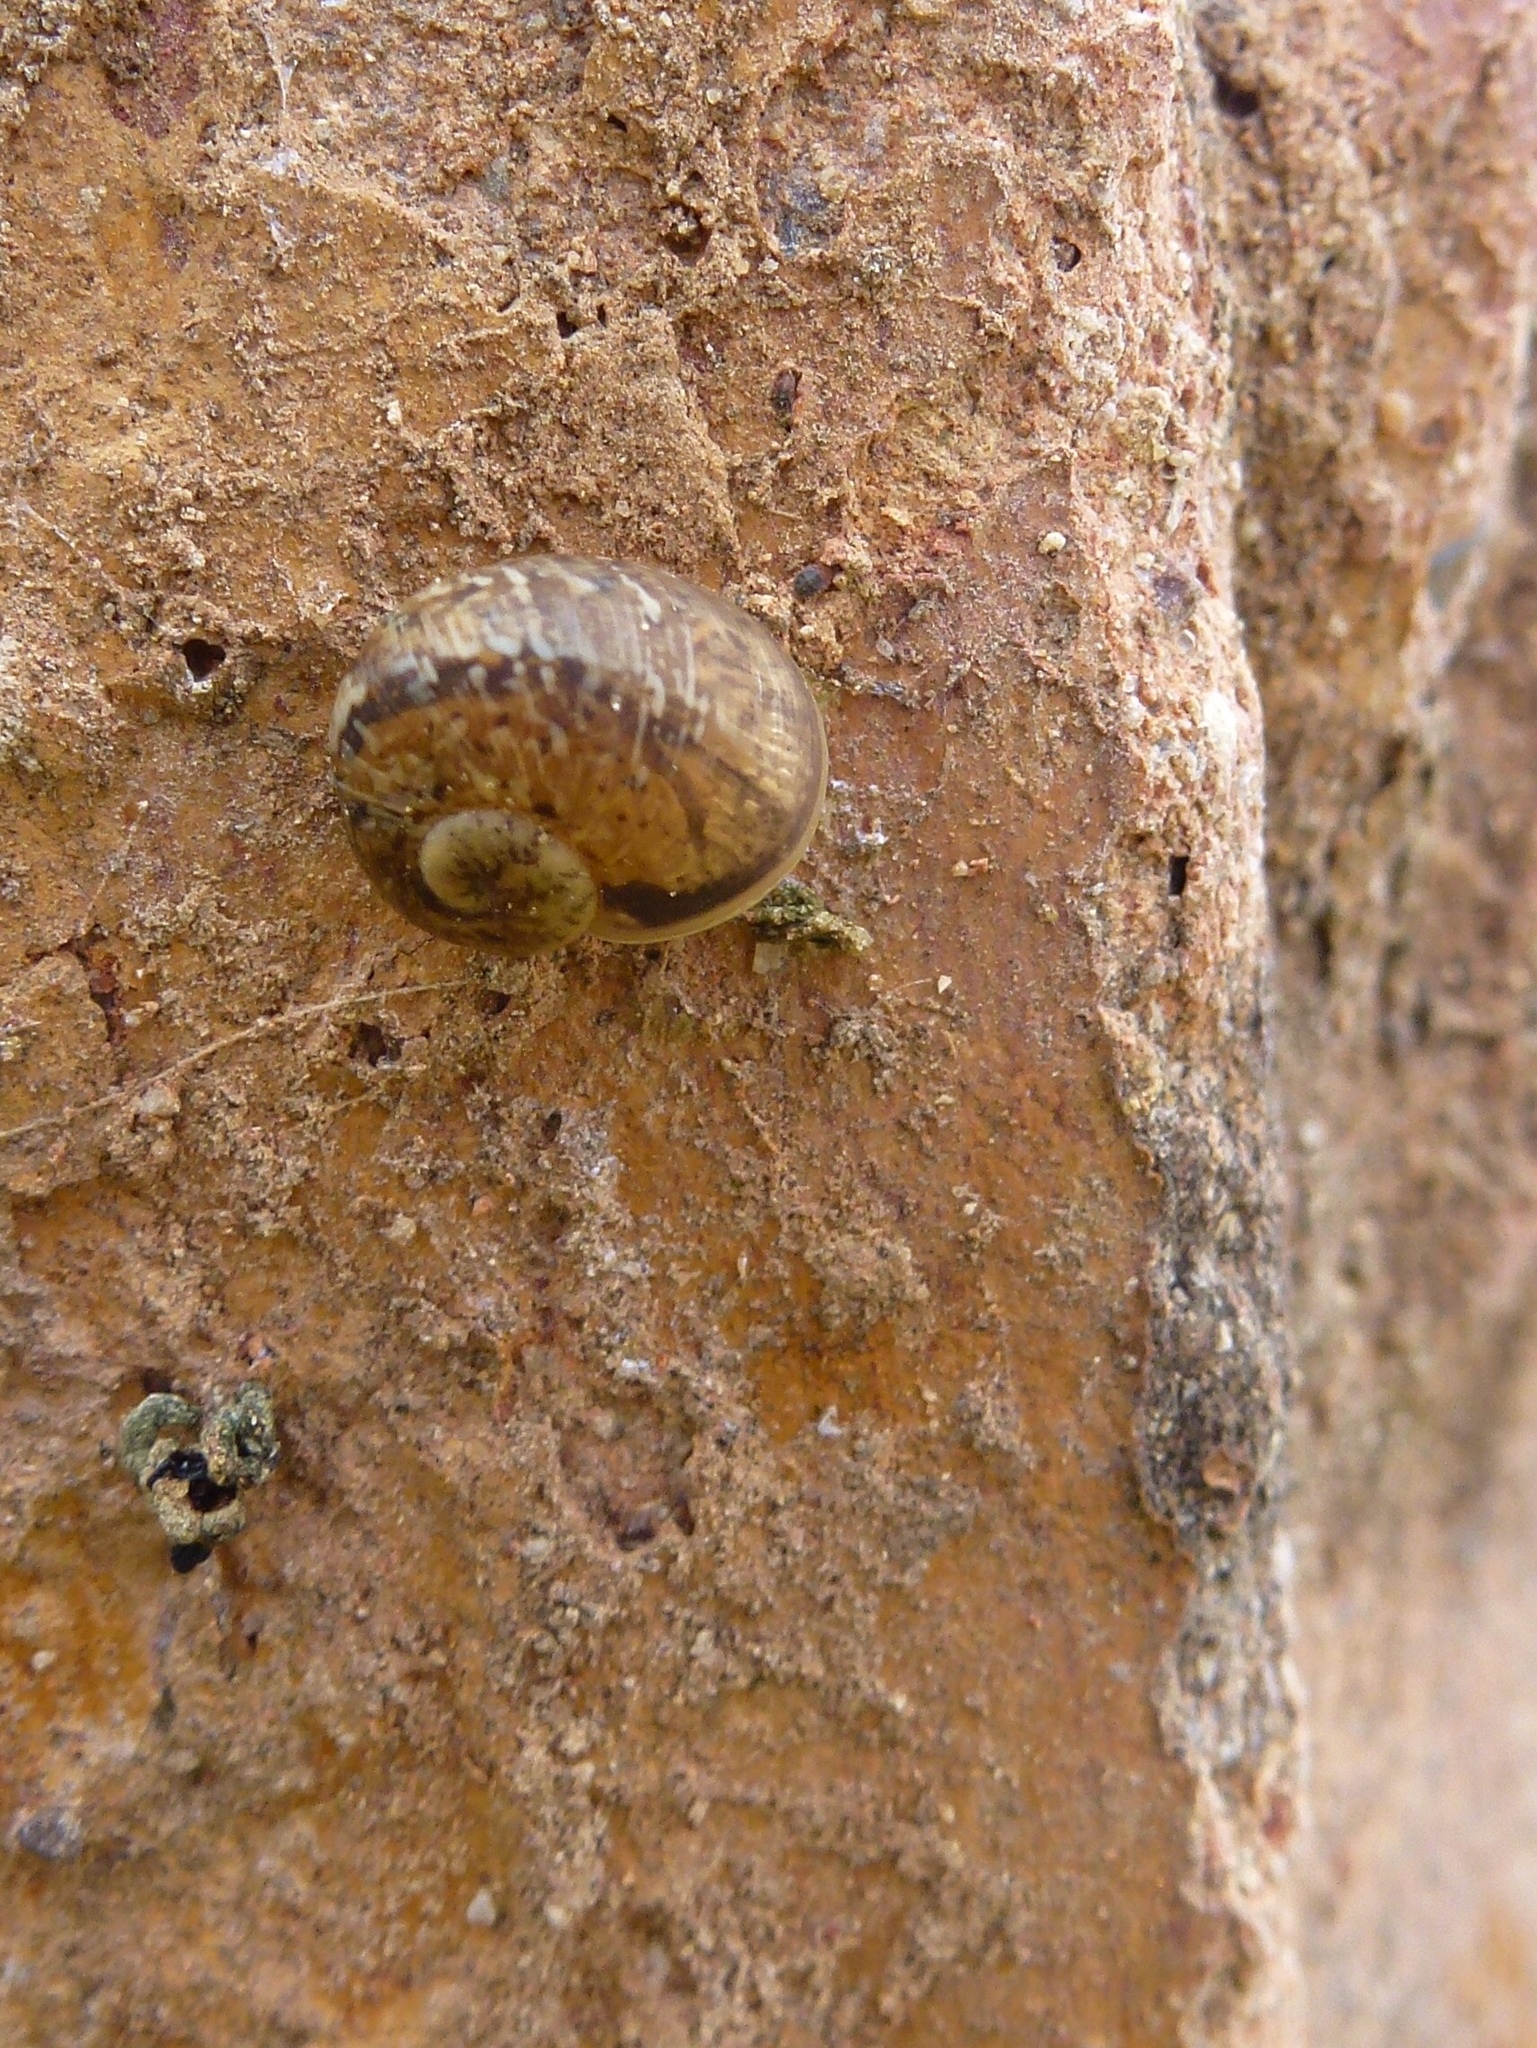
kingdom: Animalia
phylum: Mollusca
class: Gastropoda
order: Stylommatophora
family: Helicidae
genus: Cornu
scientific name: Cornu aspersum
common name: Brown garden snail
